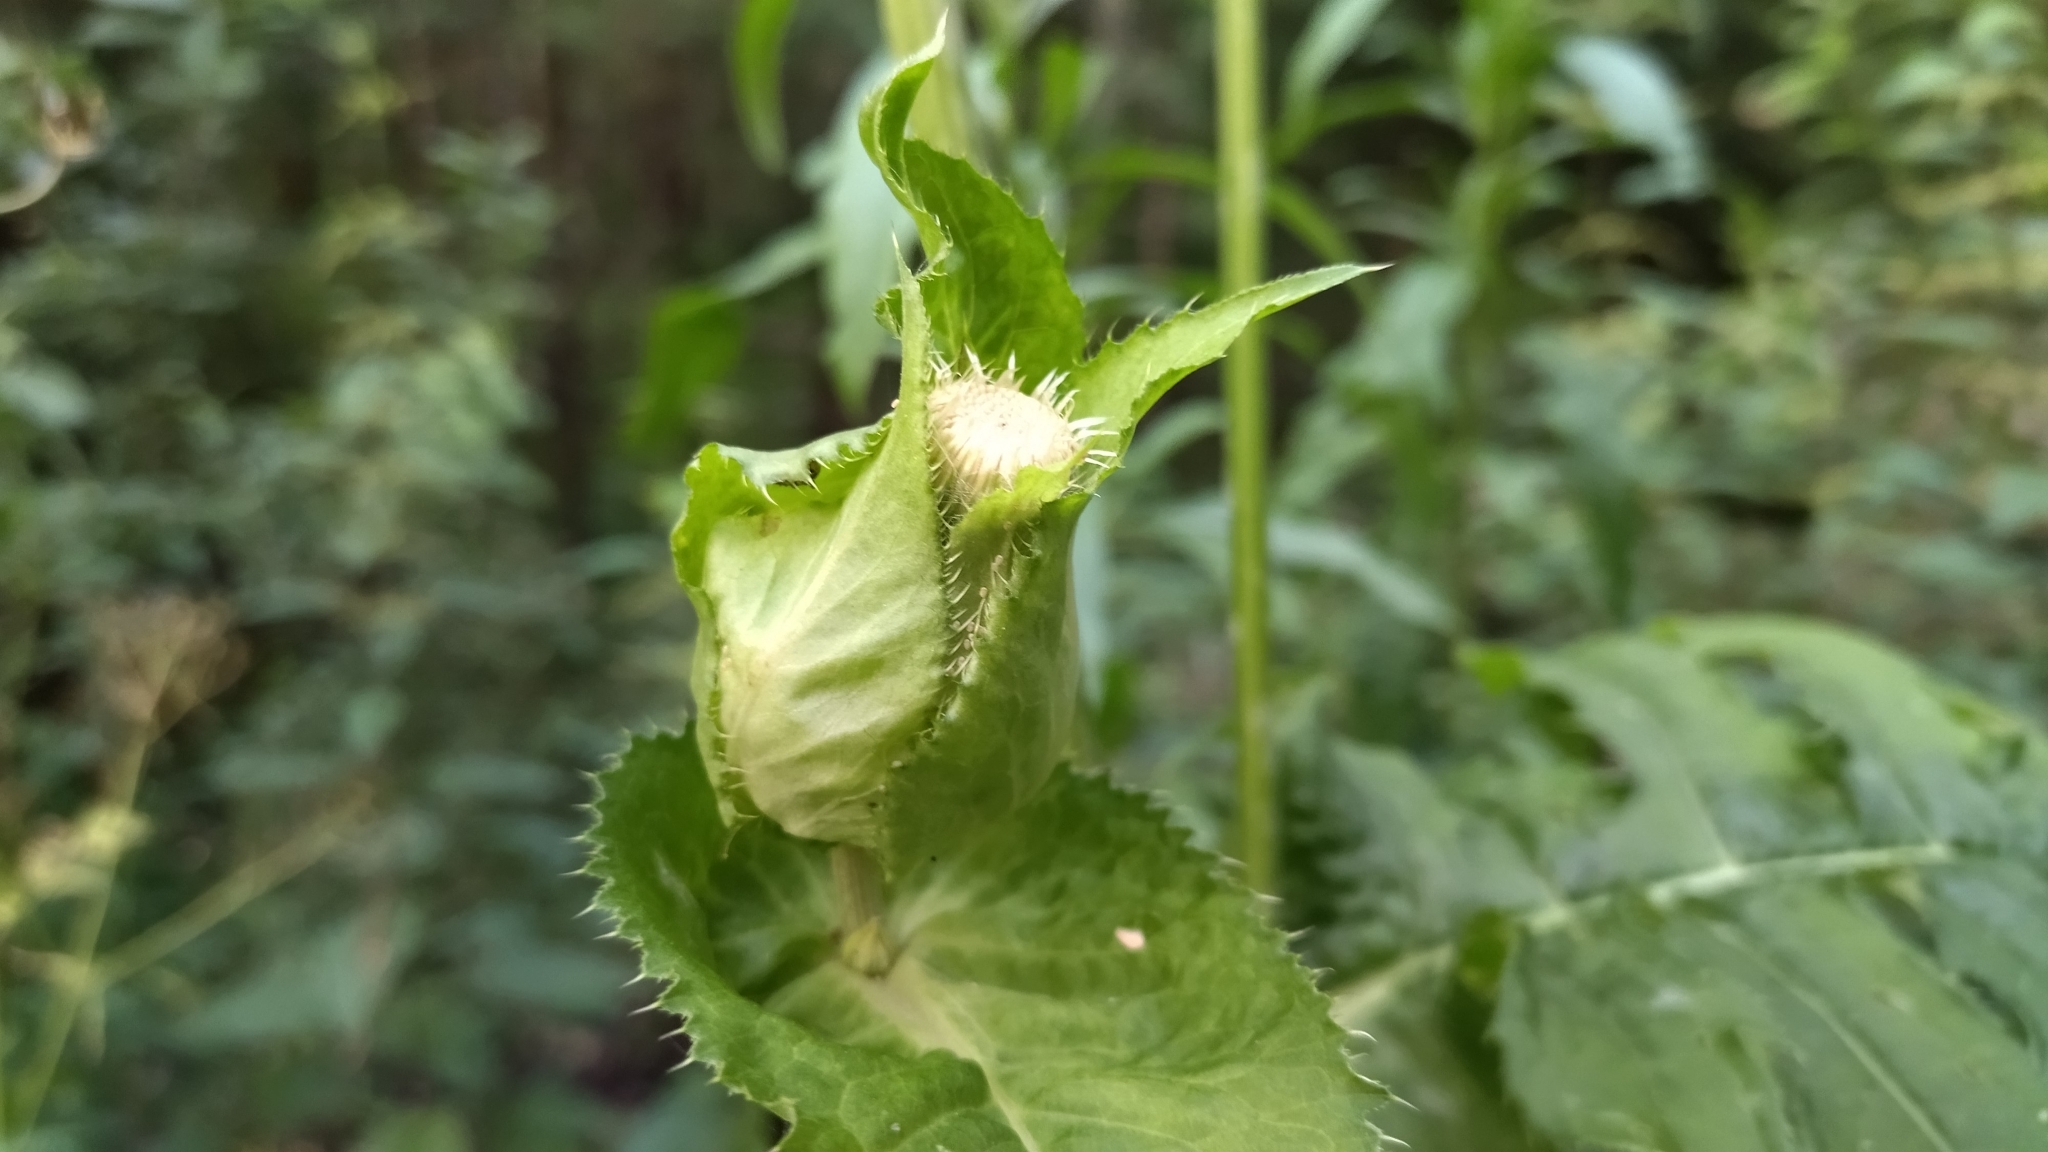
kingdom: Plantae
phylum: Tracheophyta
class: Magnoliopsida
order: Asterales
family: Asteraceae
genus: Cirsium
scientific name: Cirsium oleraceum
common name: Cabbage thistle
